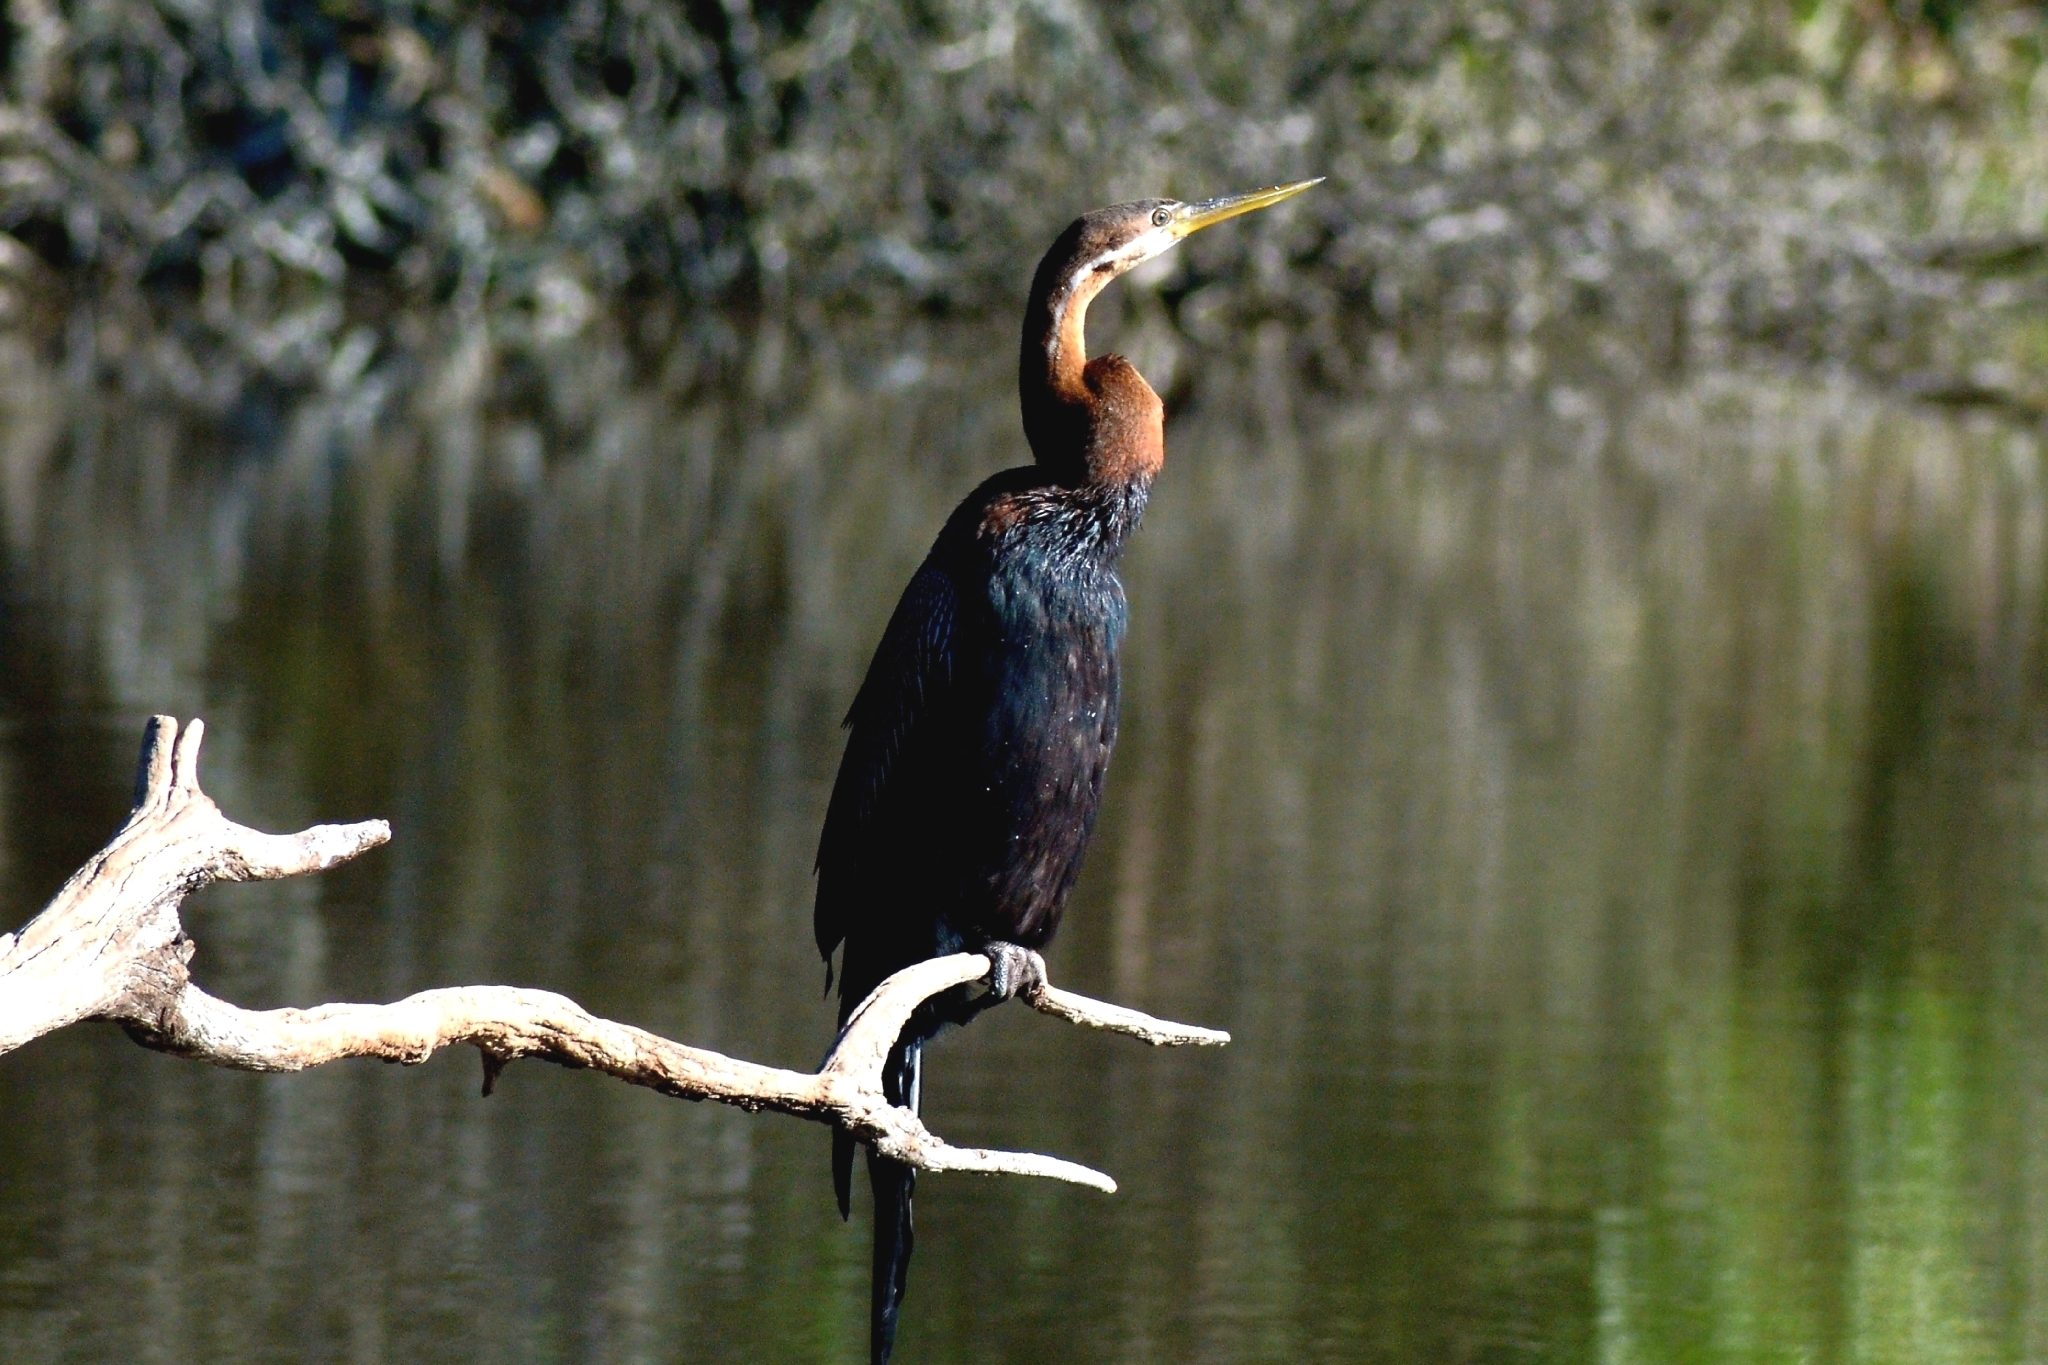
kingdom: Animalia
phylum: Chordata
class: Aves
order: Suliformes
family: Anhingidae
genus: Anhinga
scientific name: Anhinga rufa
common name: African darter
